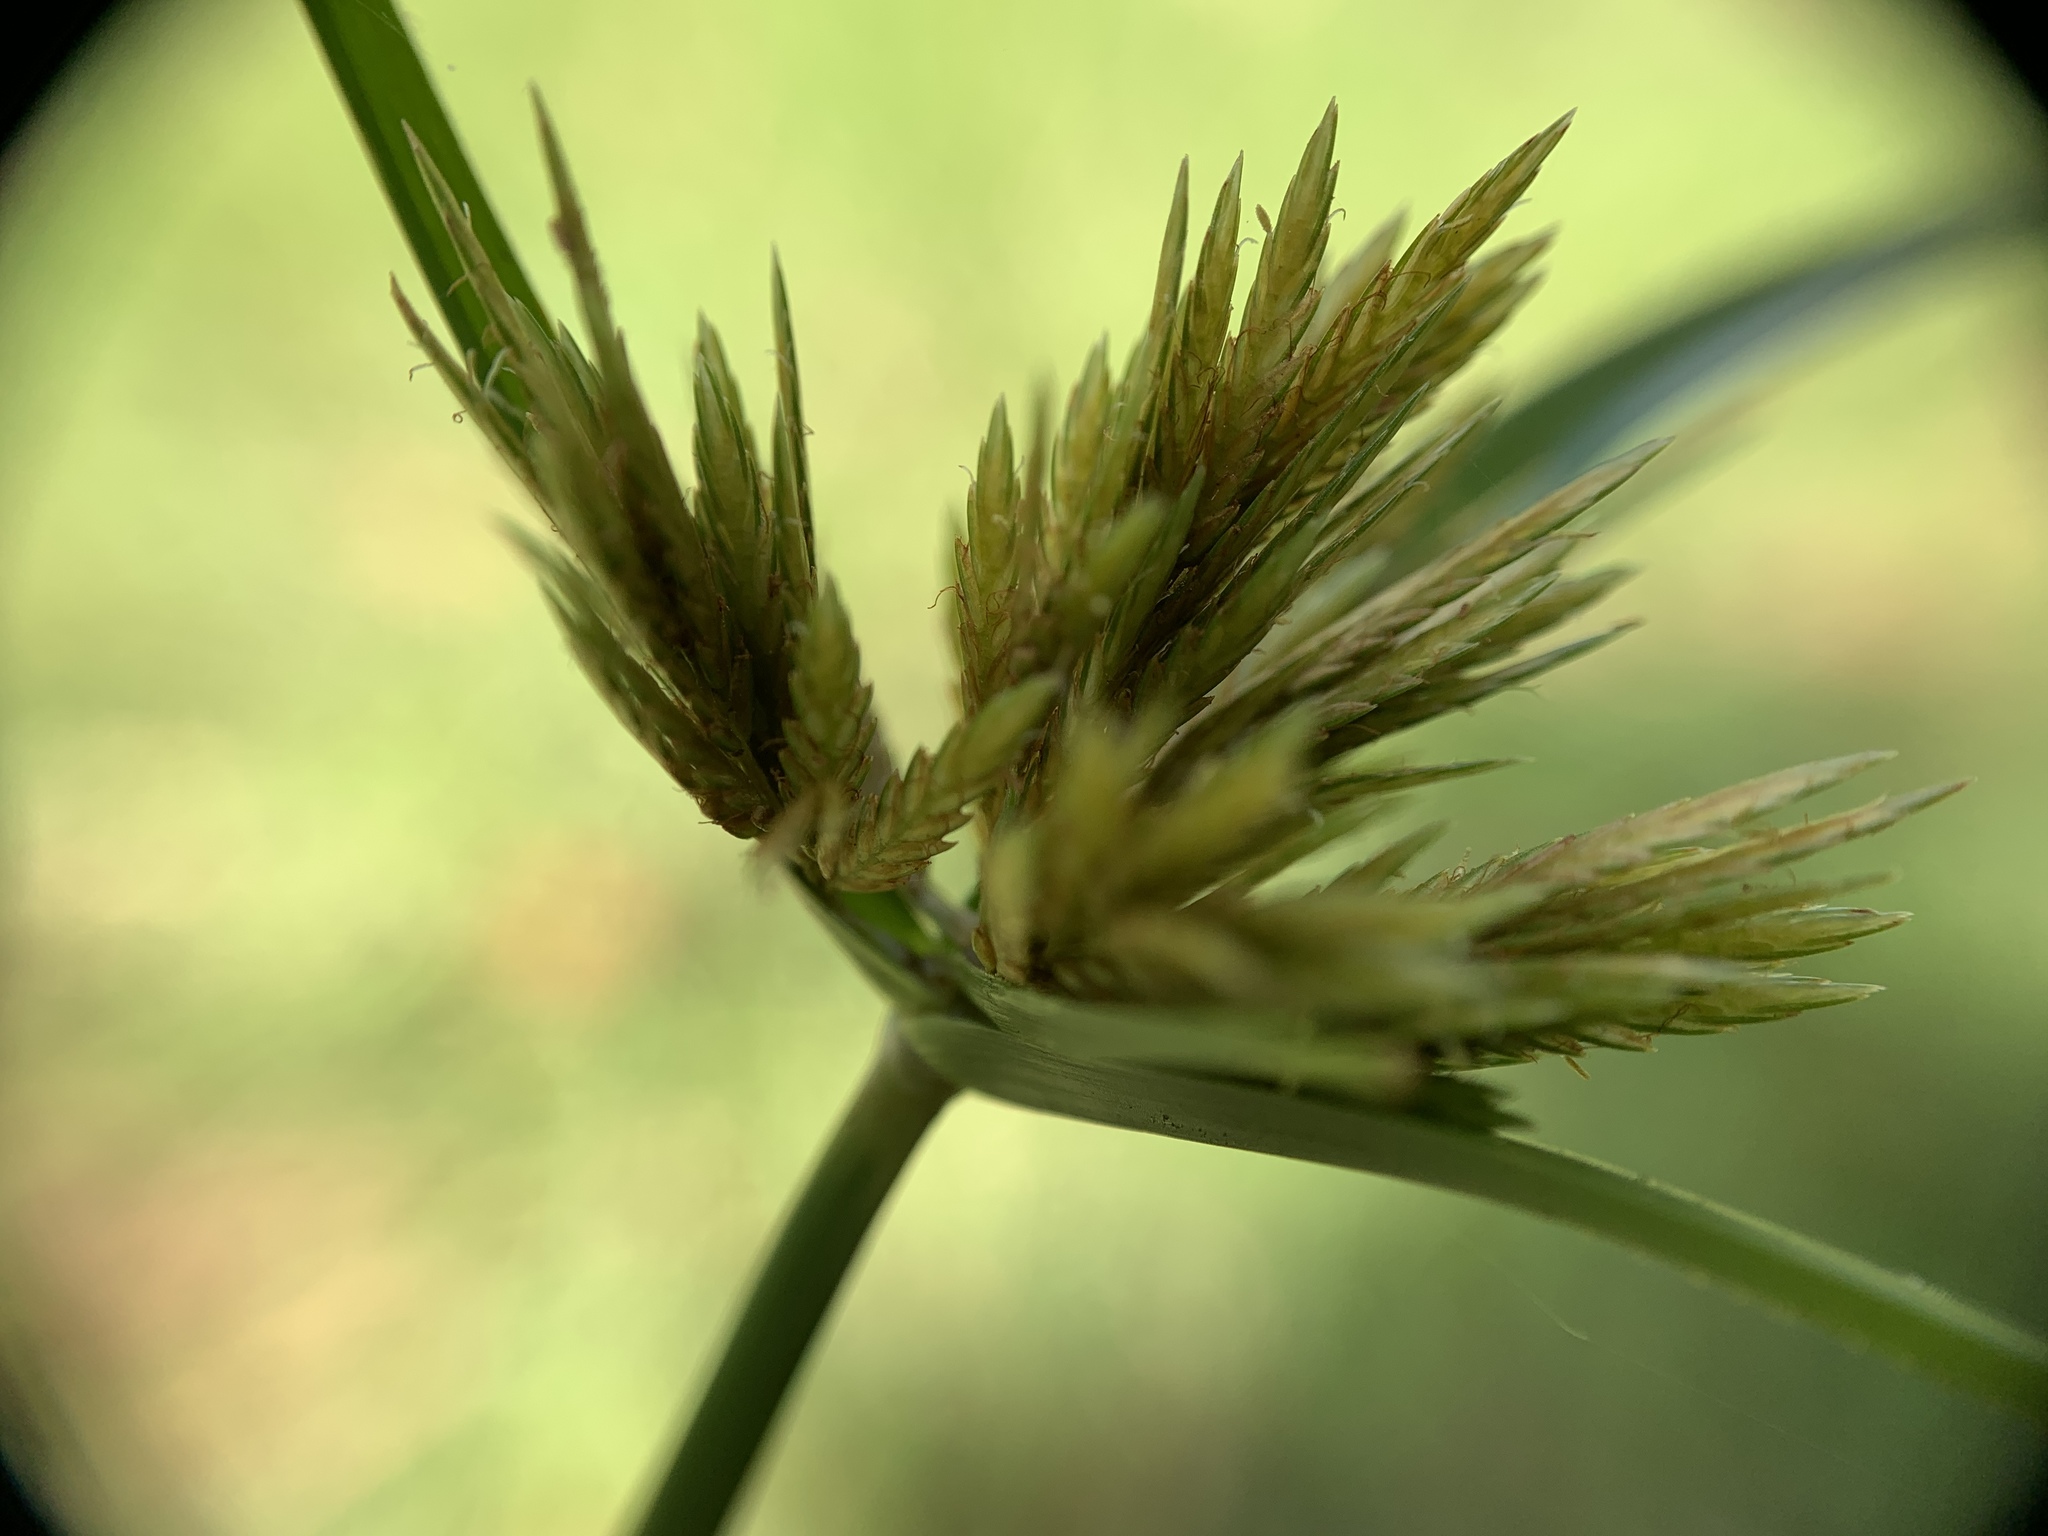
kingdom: Plantae
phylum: Tracheophyta
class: Liliopsida
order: Poales
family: Cyperaceae
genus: Cyperus
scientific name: Cyperus polystachyos
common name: Bunchy flat sedge
